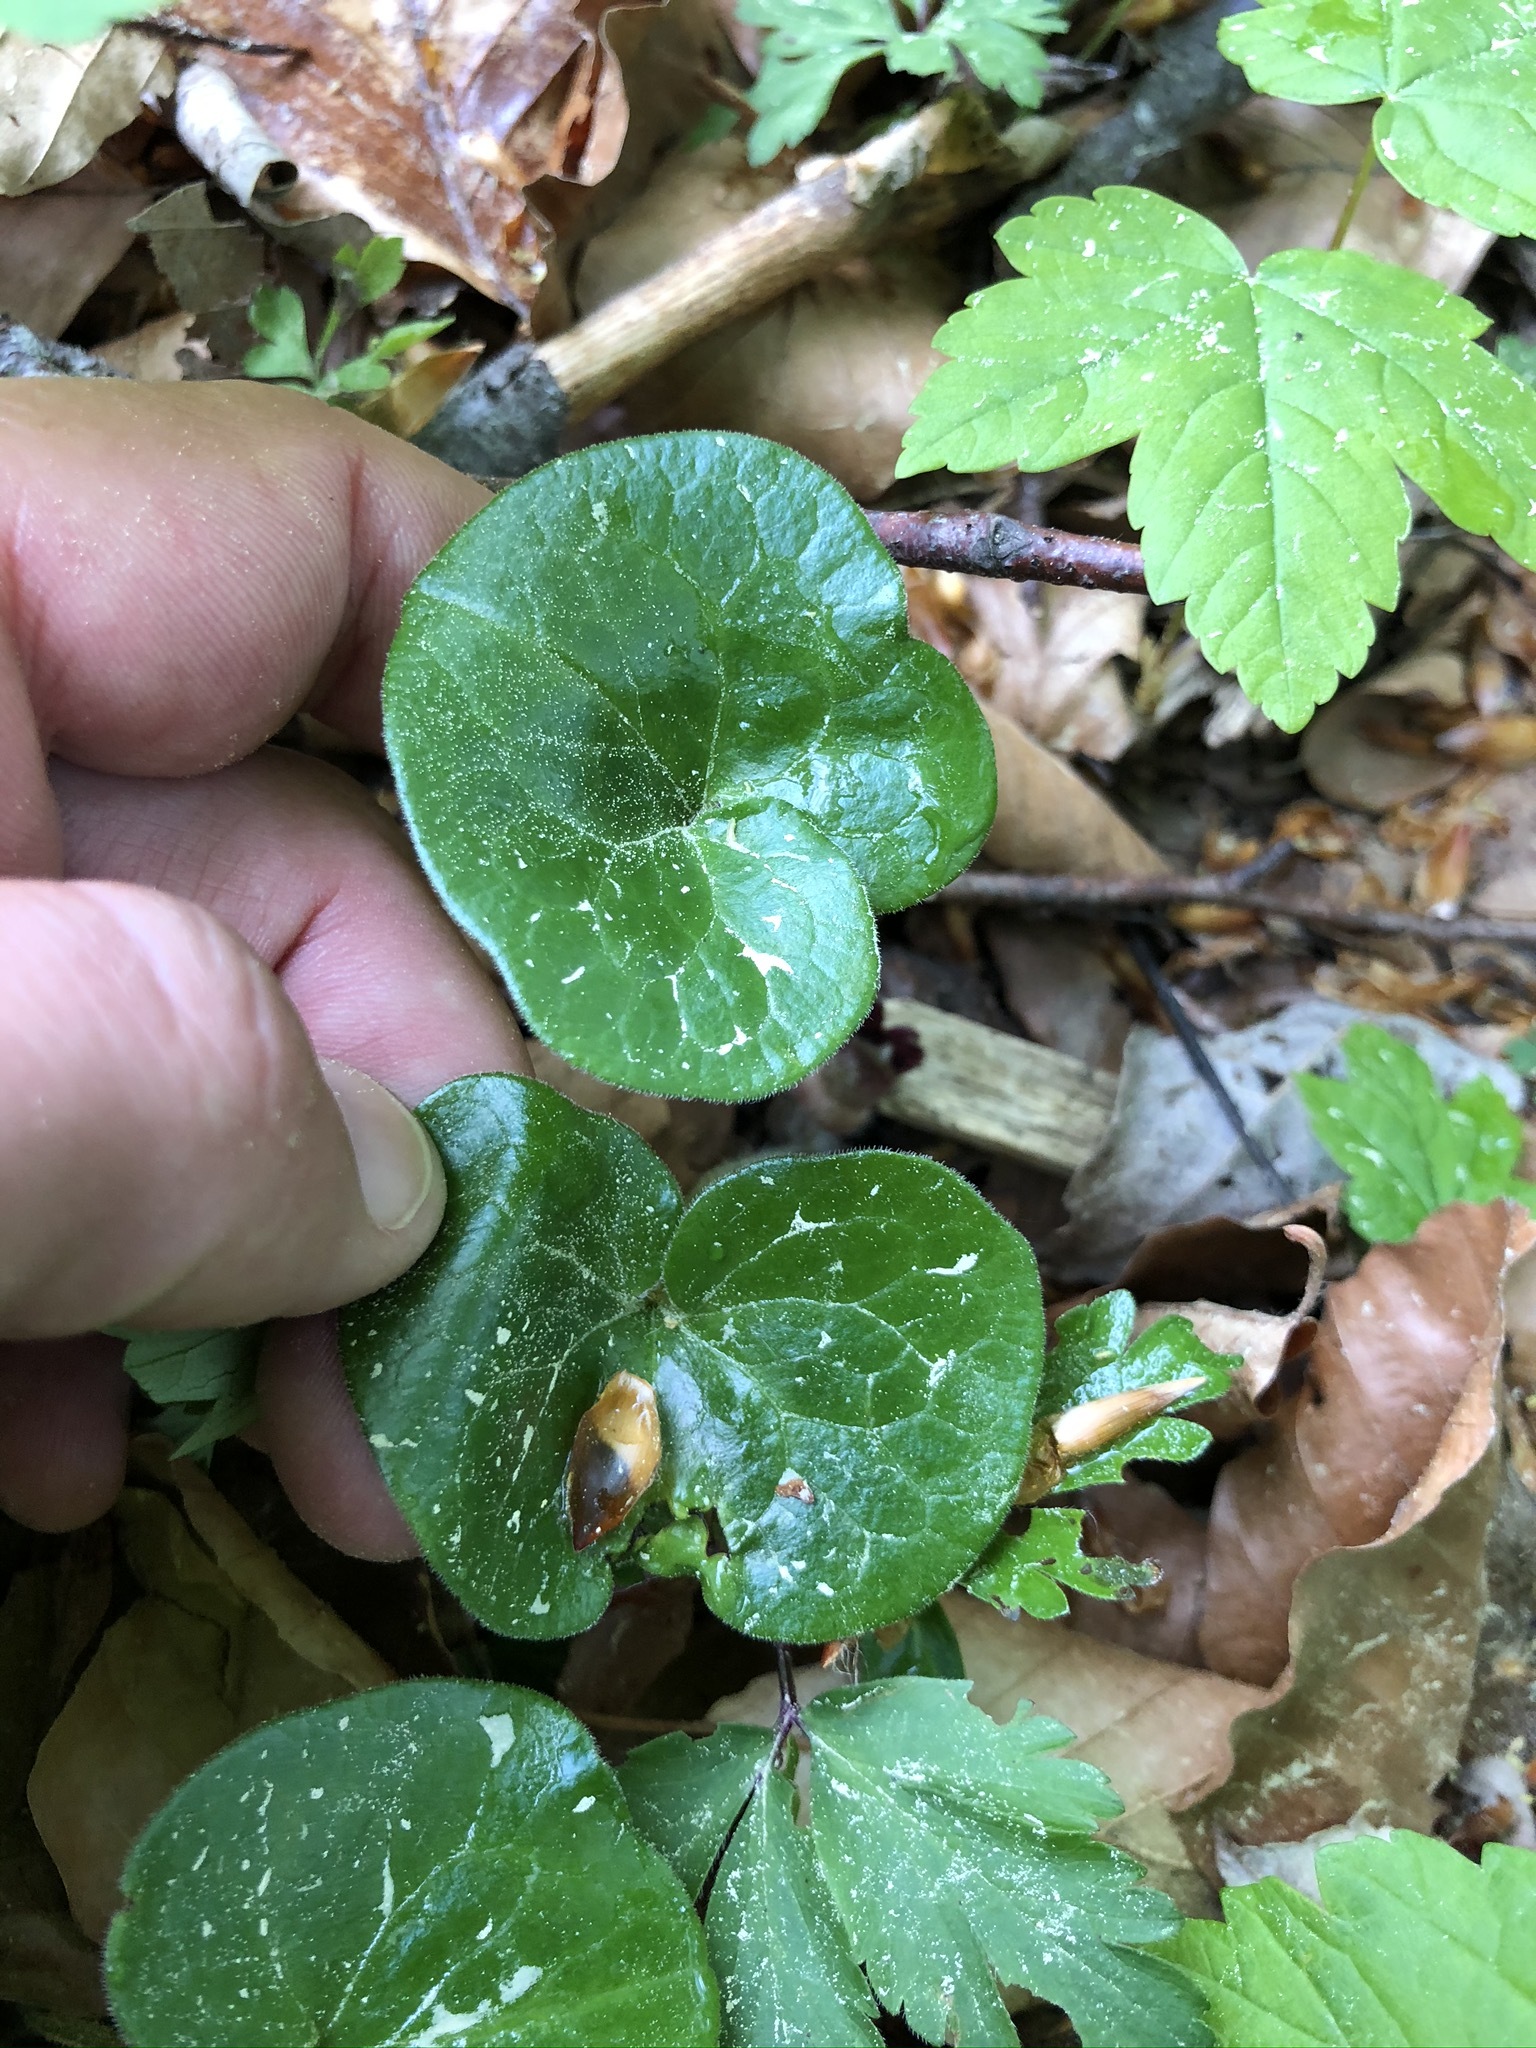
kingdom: Plantae
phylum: Tracheophyta
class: Magnoliopsida
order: Piperales
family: Aristolochiaceae
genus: Asarum
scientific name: Asarum europaeum
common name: Asarabacca
